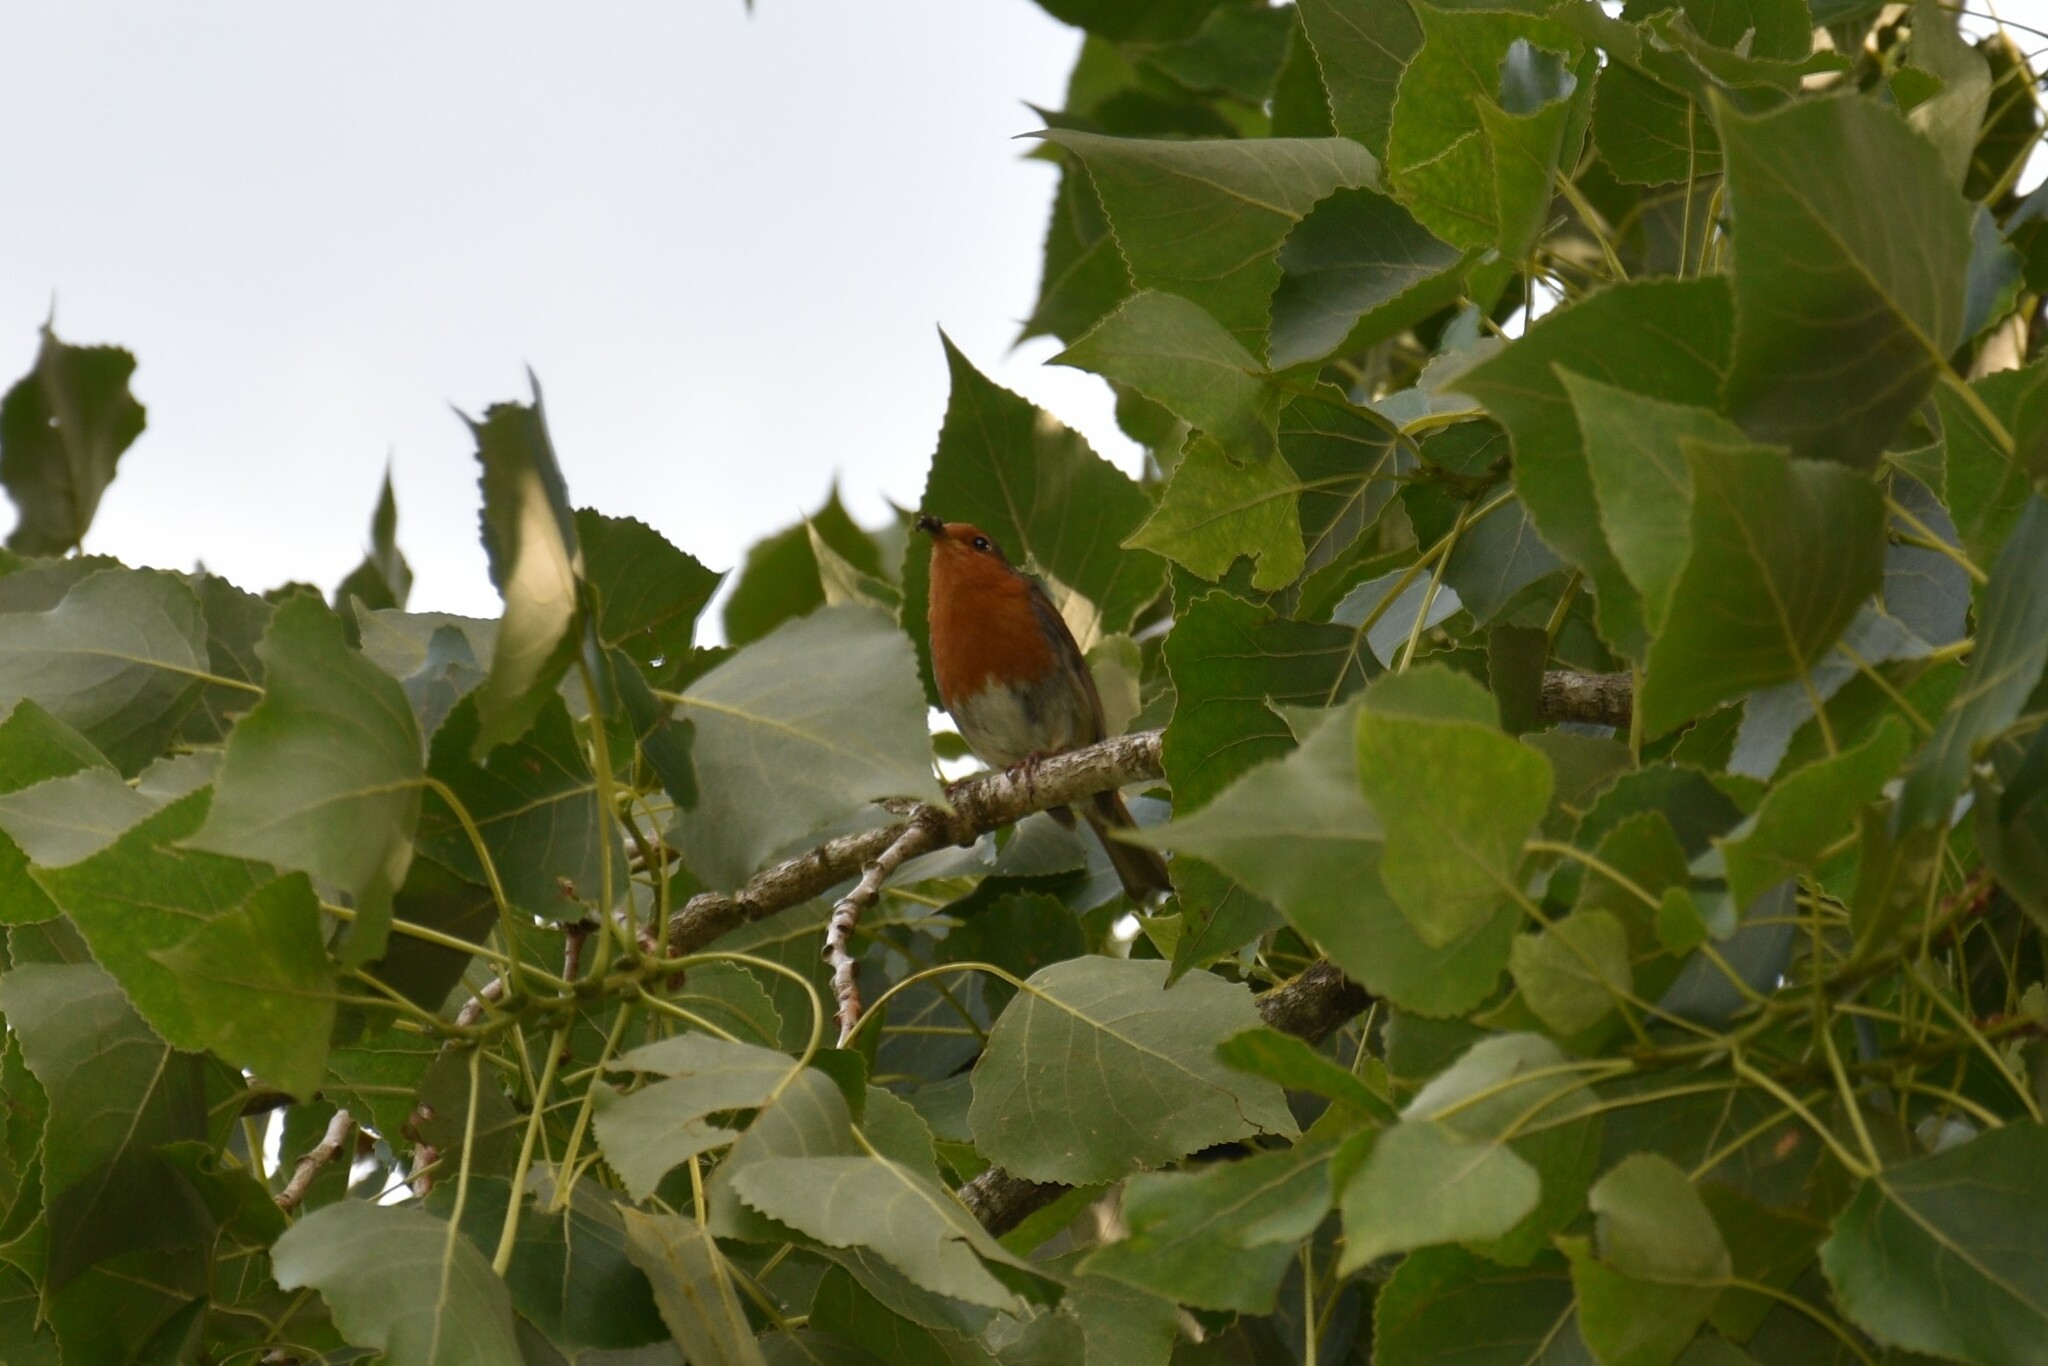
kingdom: Animalia
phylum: Chordata
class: Aves
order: Passeriformes
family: Muscicapidae
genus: Erithacus
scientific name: Erithacus rubecula
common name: European robin
